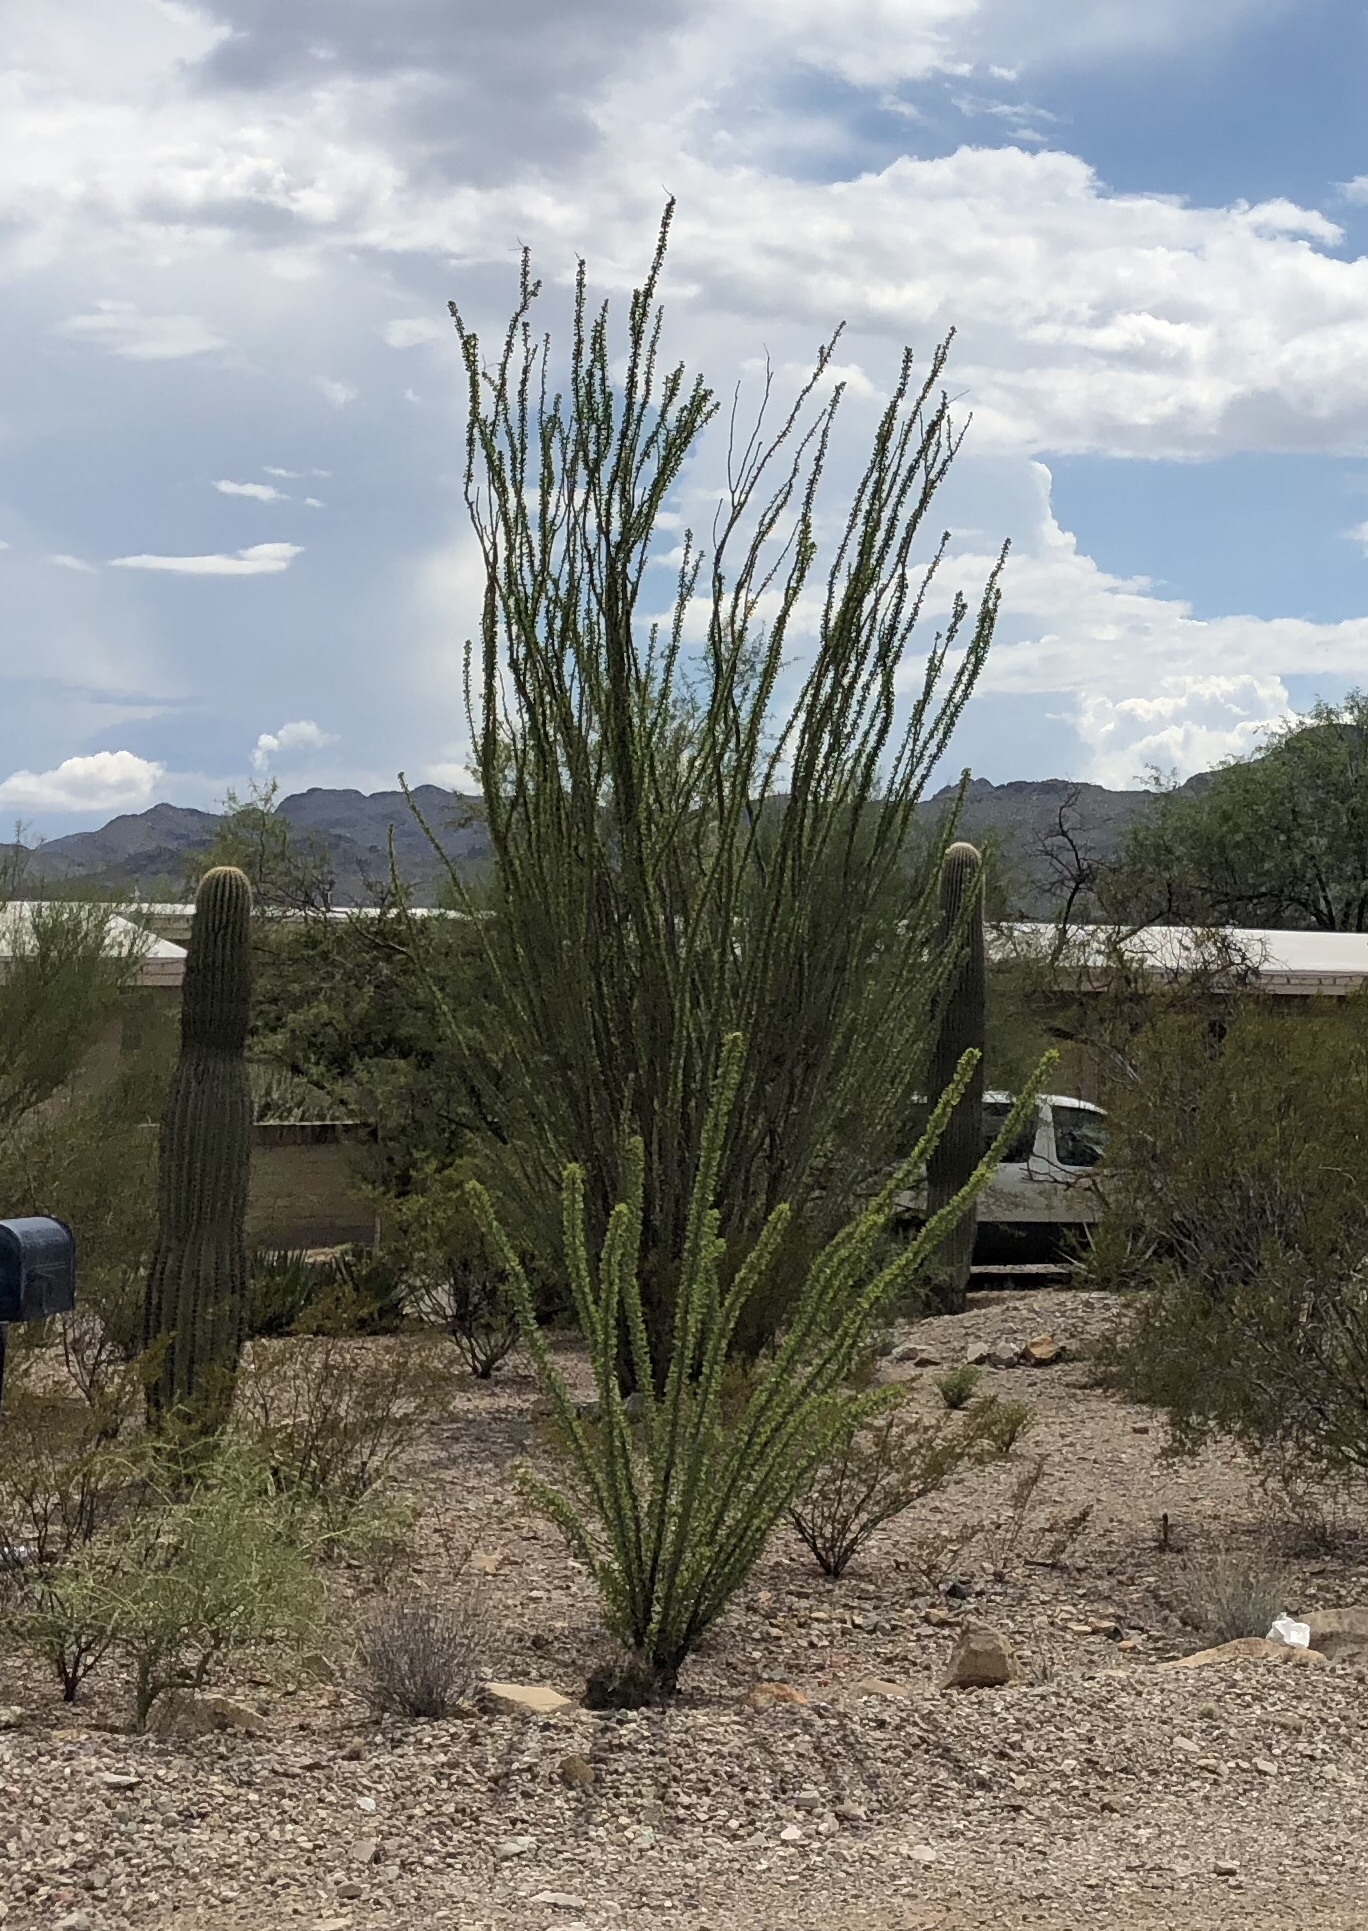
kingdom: Plantae
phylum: Tracheophyta
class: Magnoliopsida
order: Ericales
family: Fouquieriaceae
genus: Fouquieria
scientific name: Fouquieria splendens
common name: Vine-cactus
